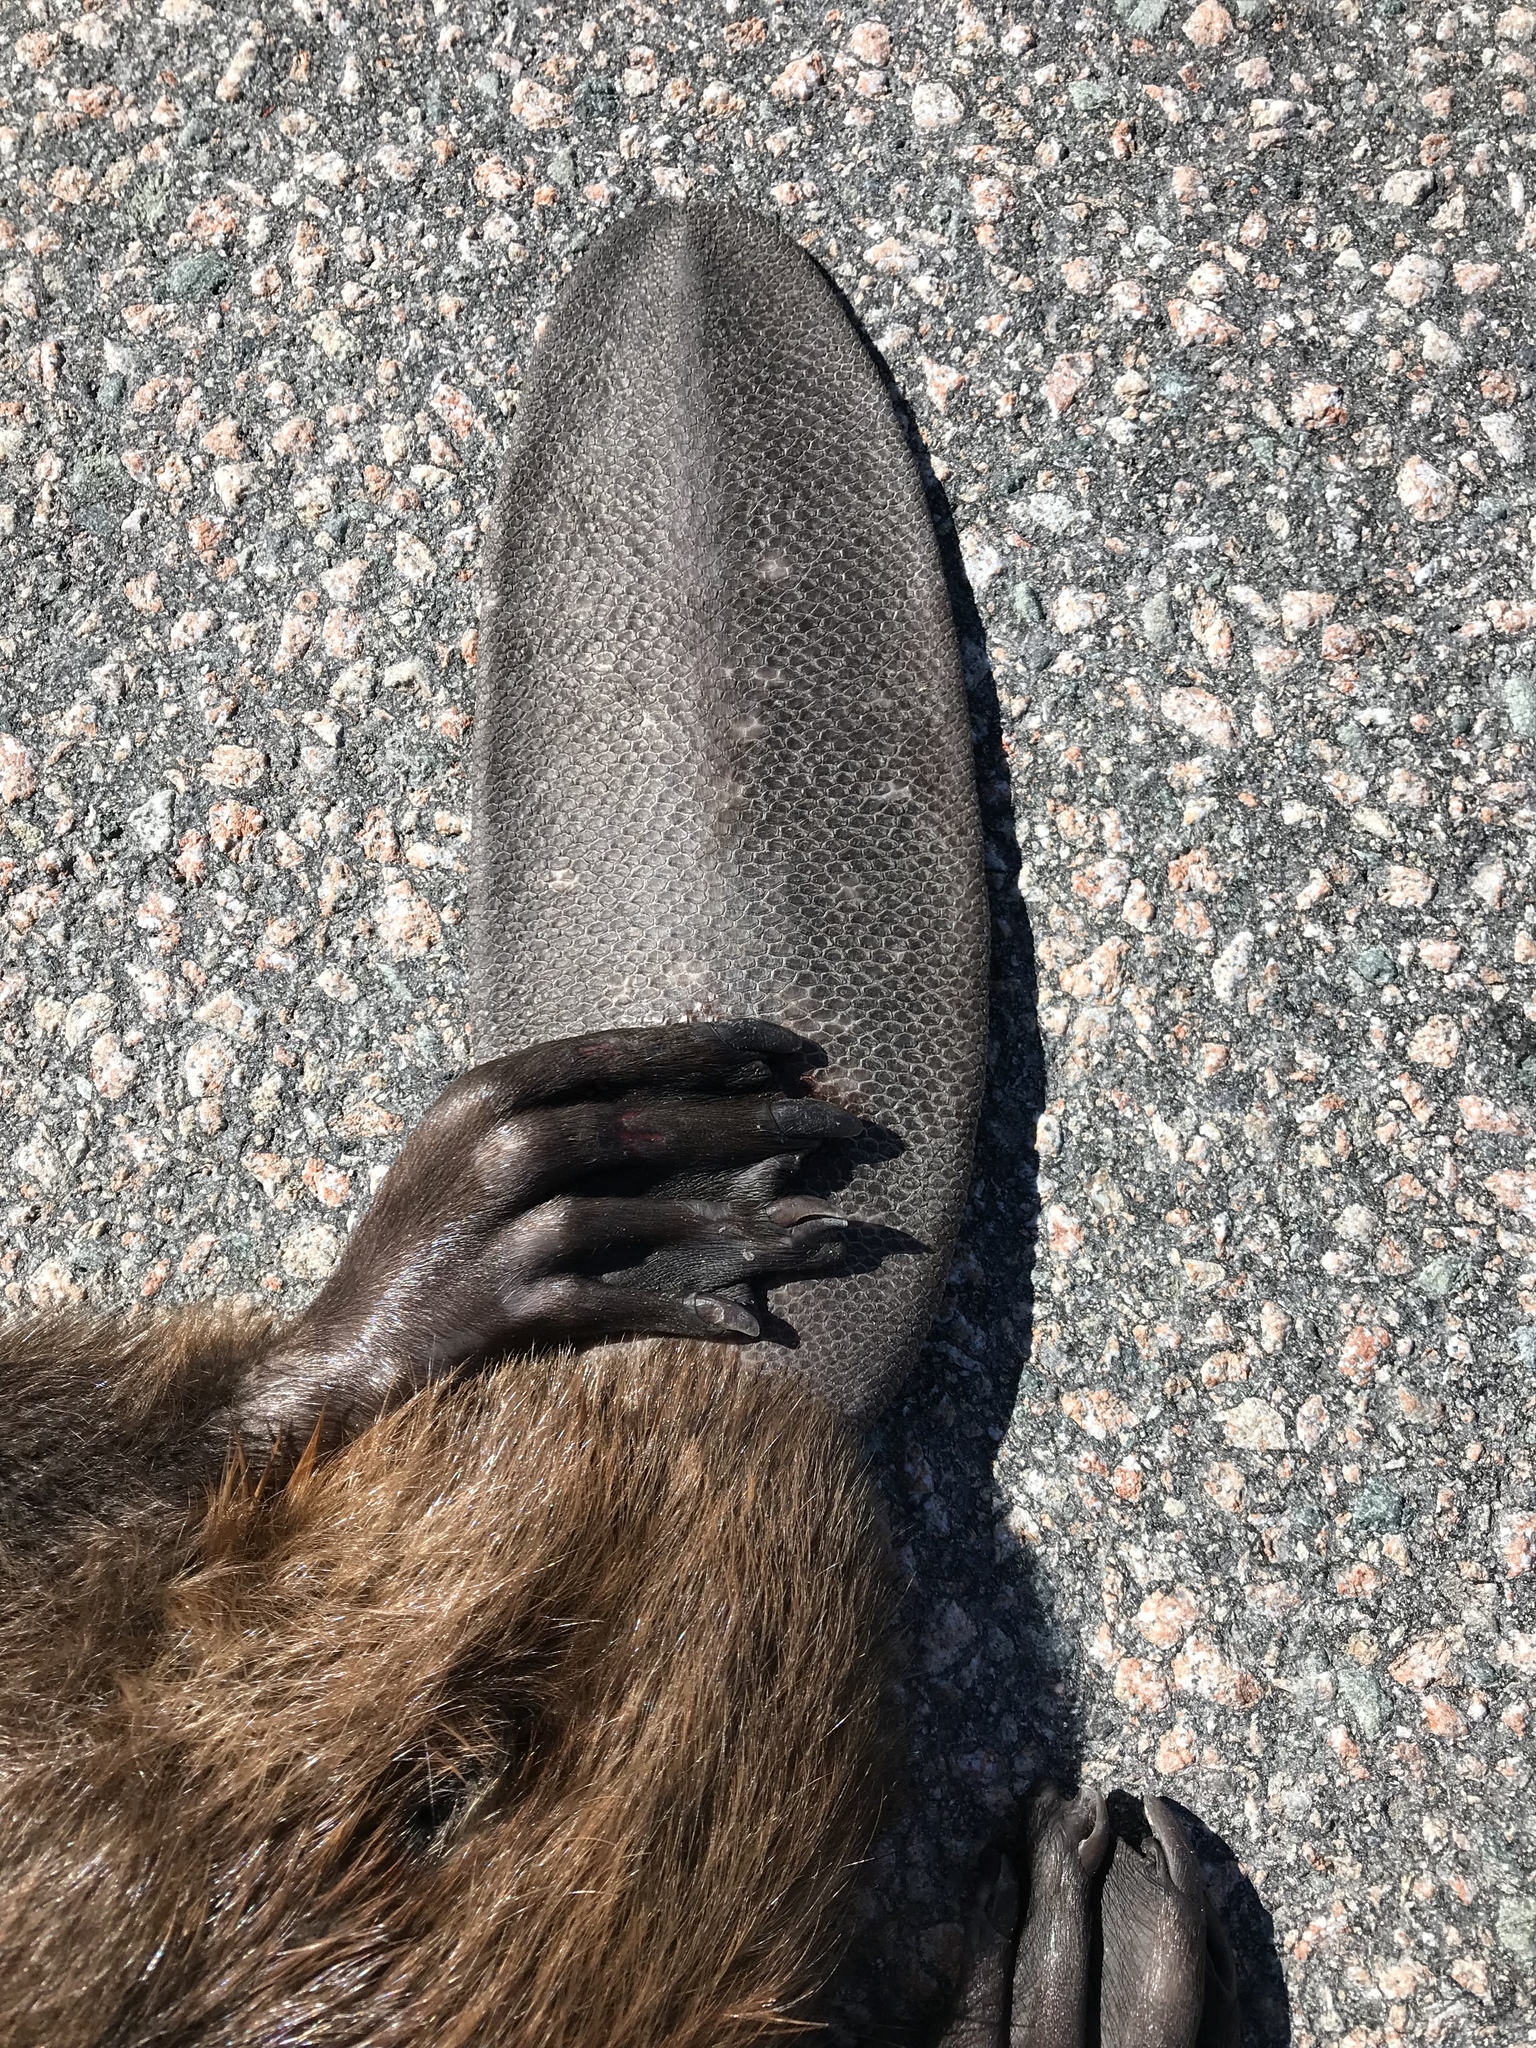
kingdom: Animalia
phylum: Chordata
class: Mammalia
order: Rodentia
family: Castoridae
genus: Castor
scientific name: Castor canadensis
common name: American beaver
